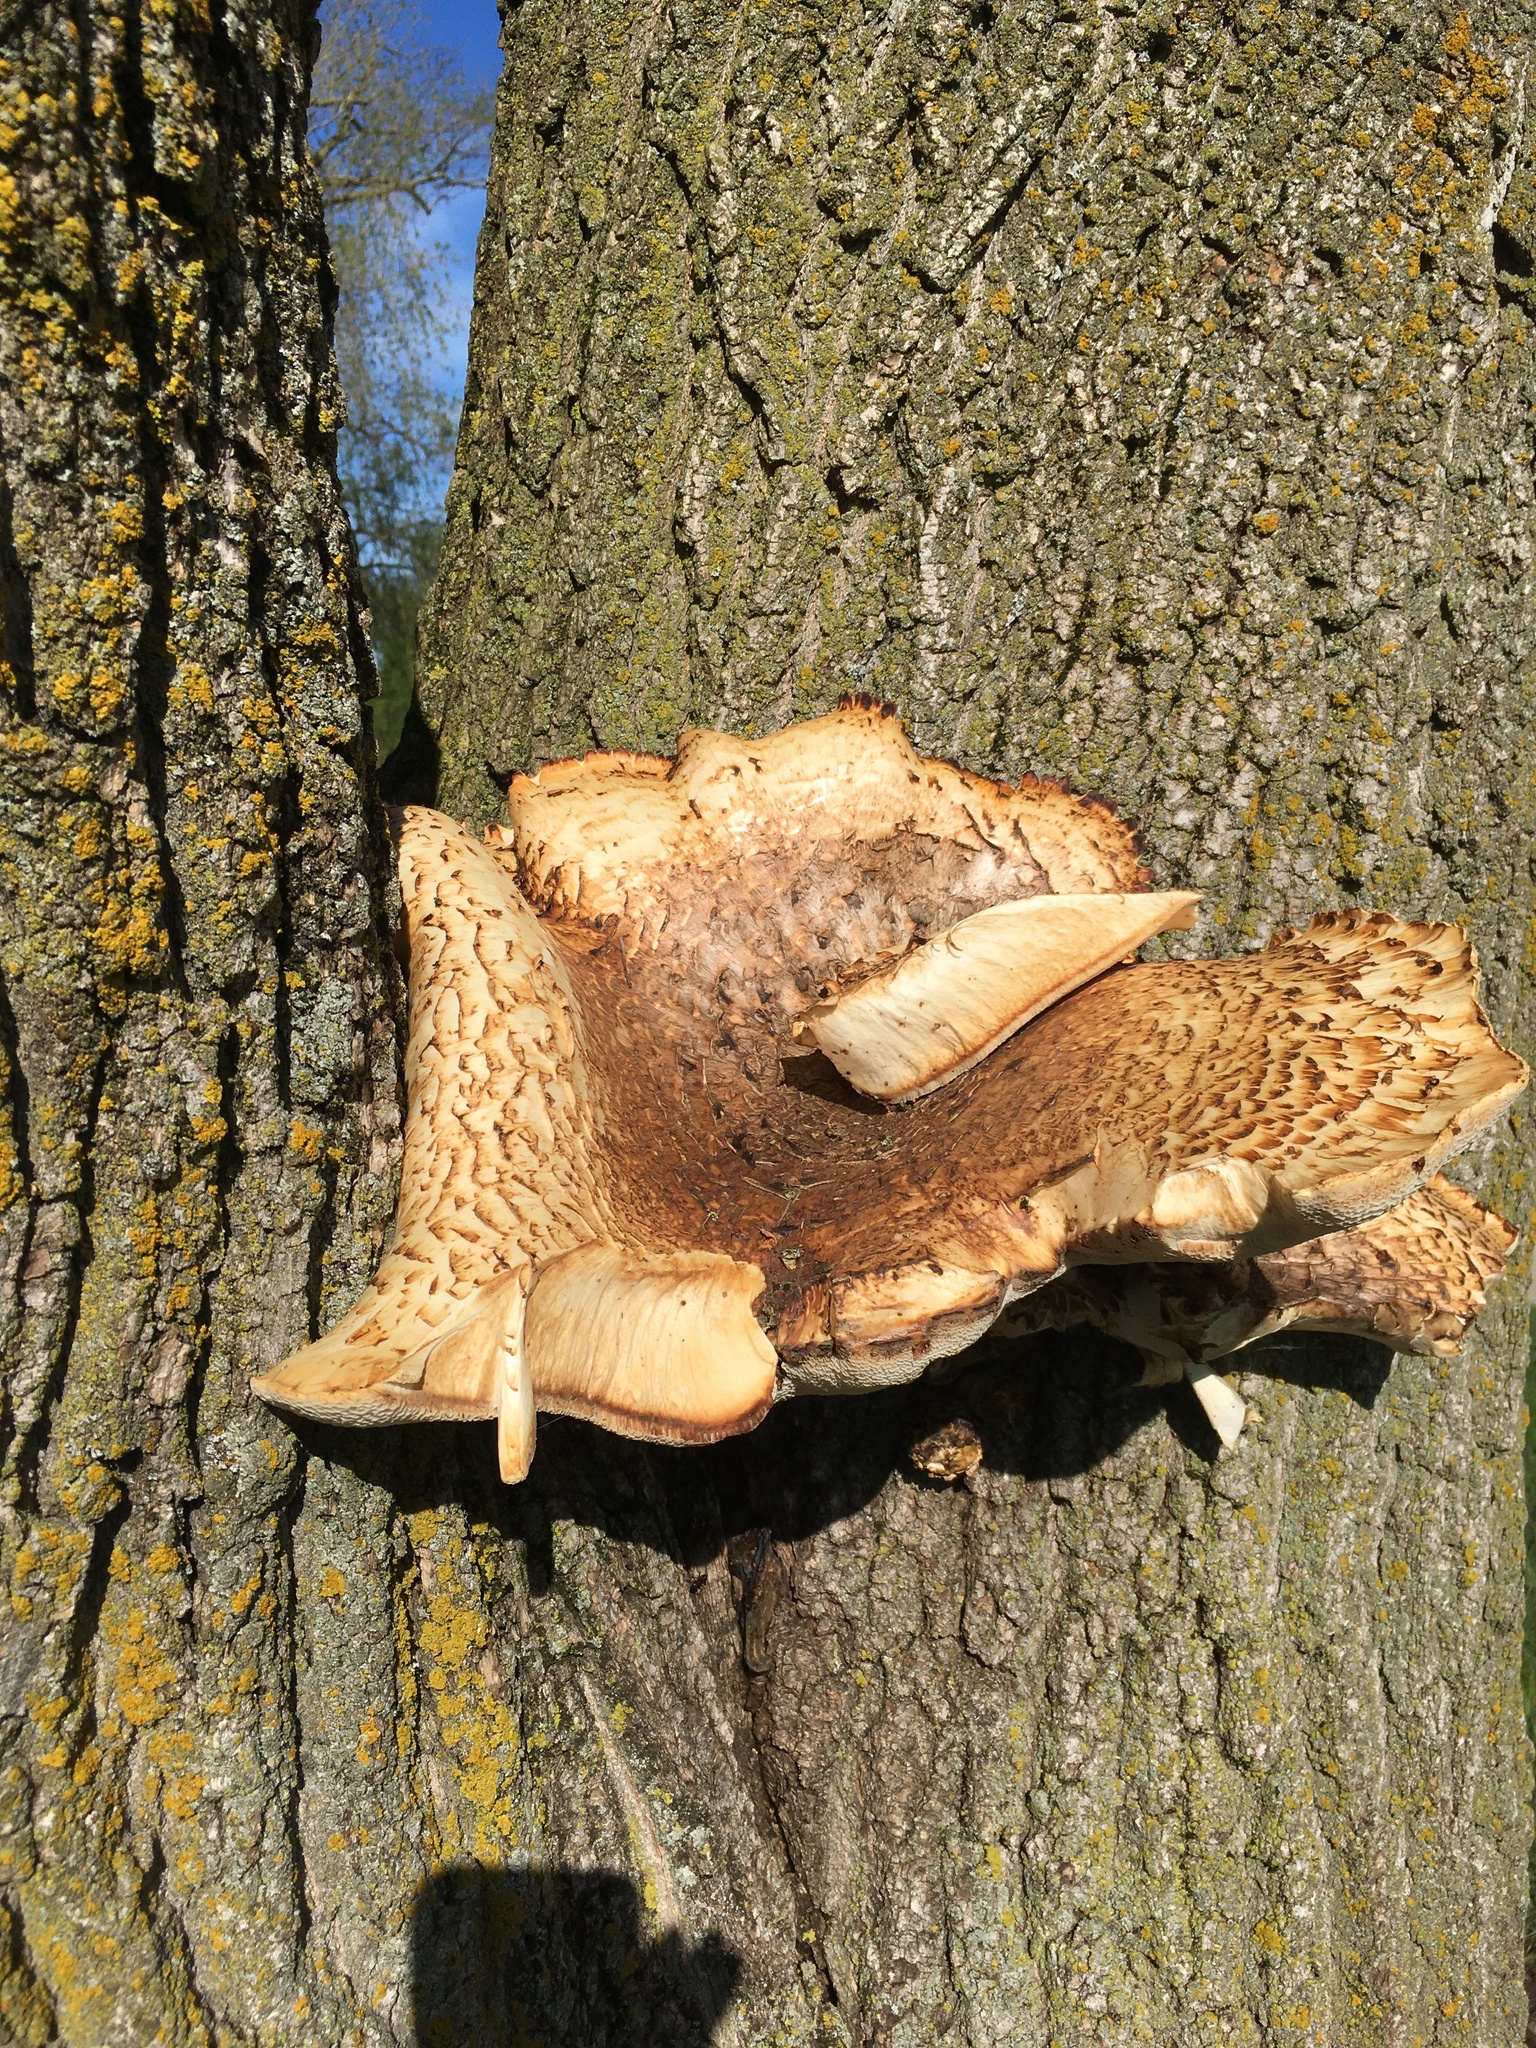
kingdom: Fungi
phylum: Basidiomycota
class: Agaricomycetes
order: Polyporales
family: Polyporaceae
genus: Cerioporus
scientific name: Cerioporus squamosus
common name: Dryad's saddle
